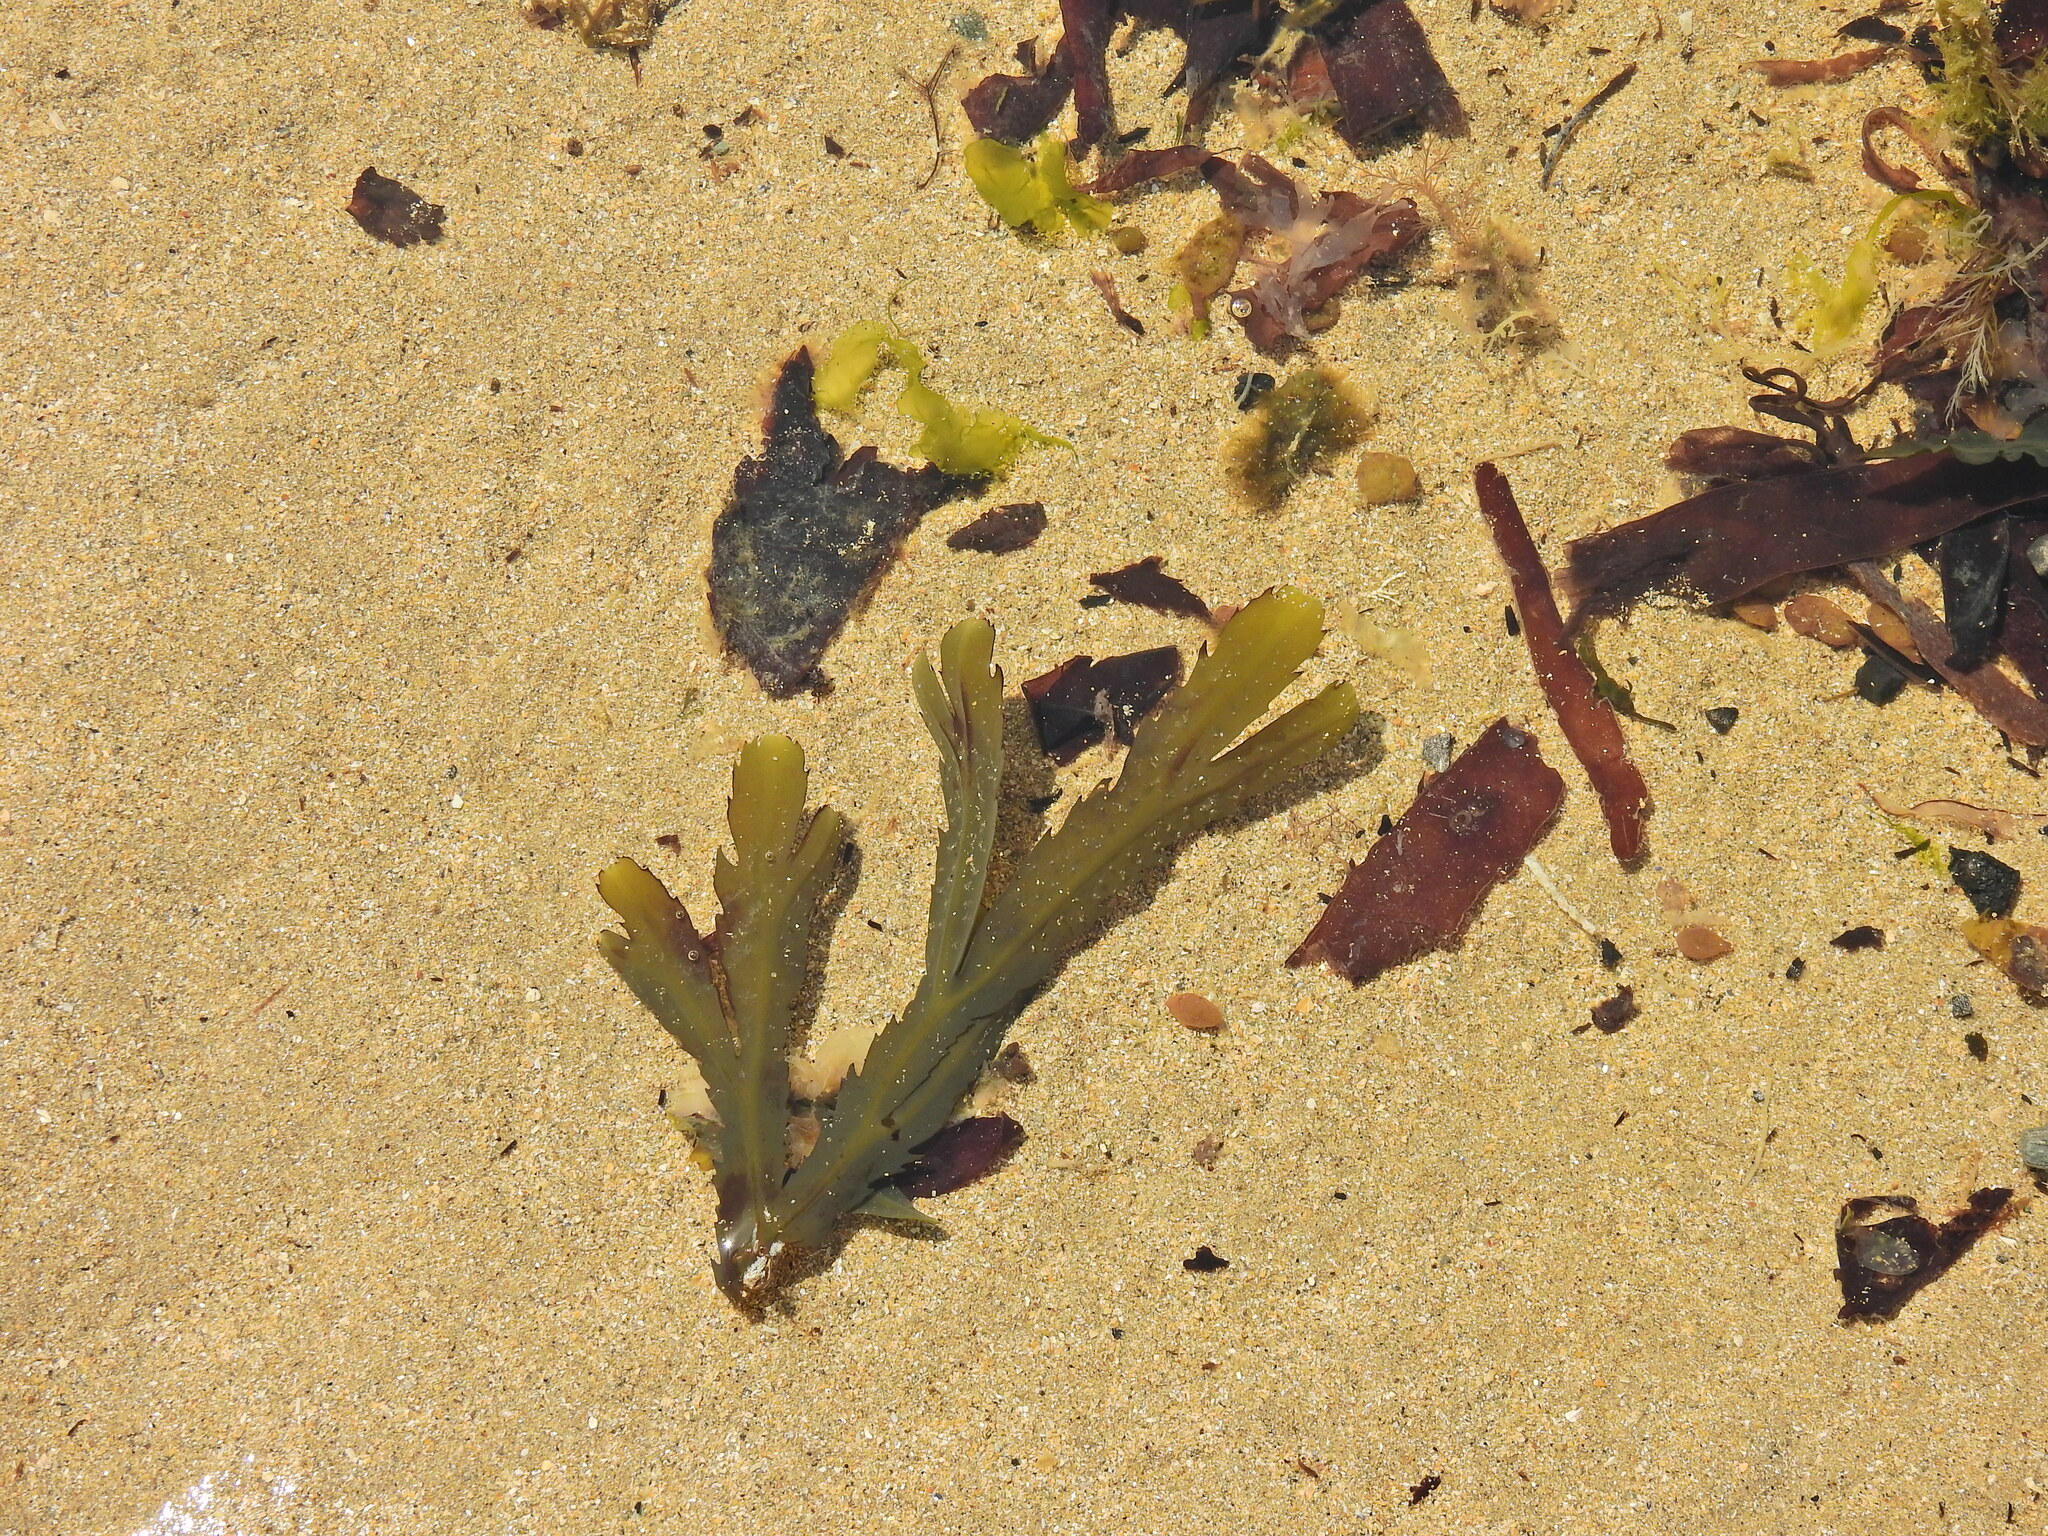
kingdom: Chromista
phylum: Ochrophyta
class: Phaeophyceae
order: Fucales
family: Fucaceae
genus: Fucus
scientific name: Fucus serratus
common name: Toothed wrack
